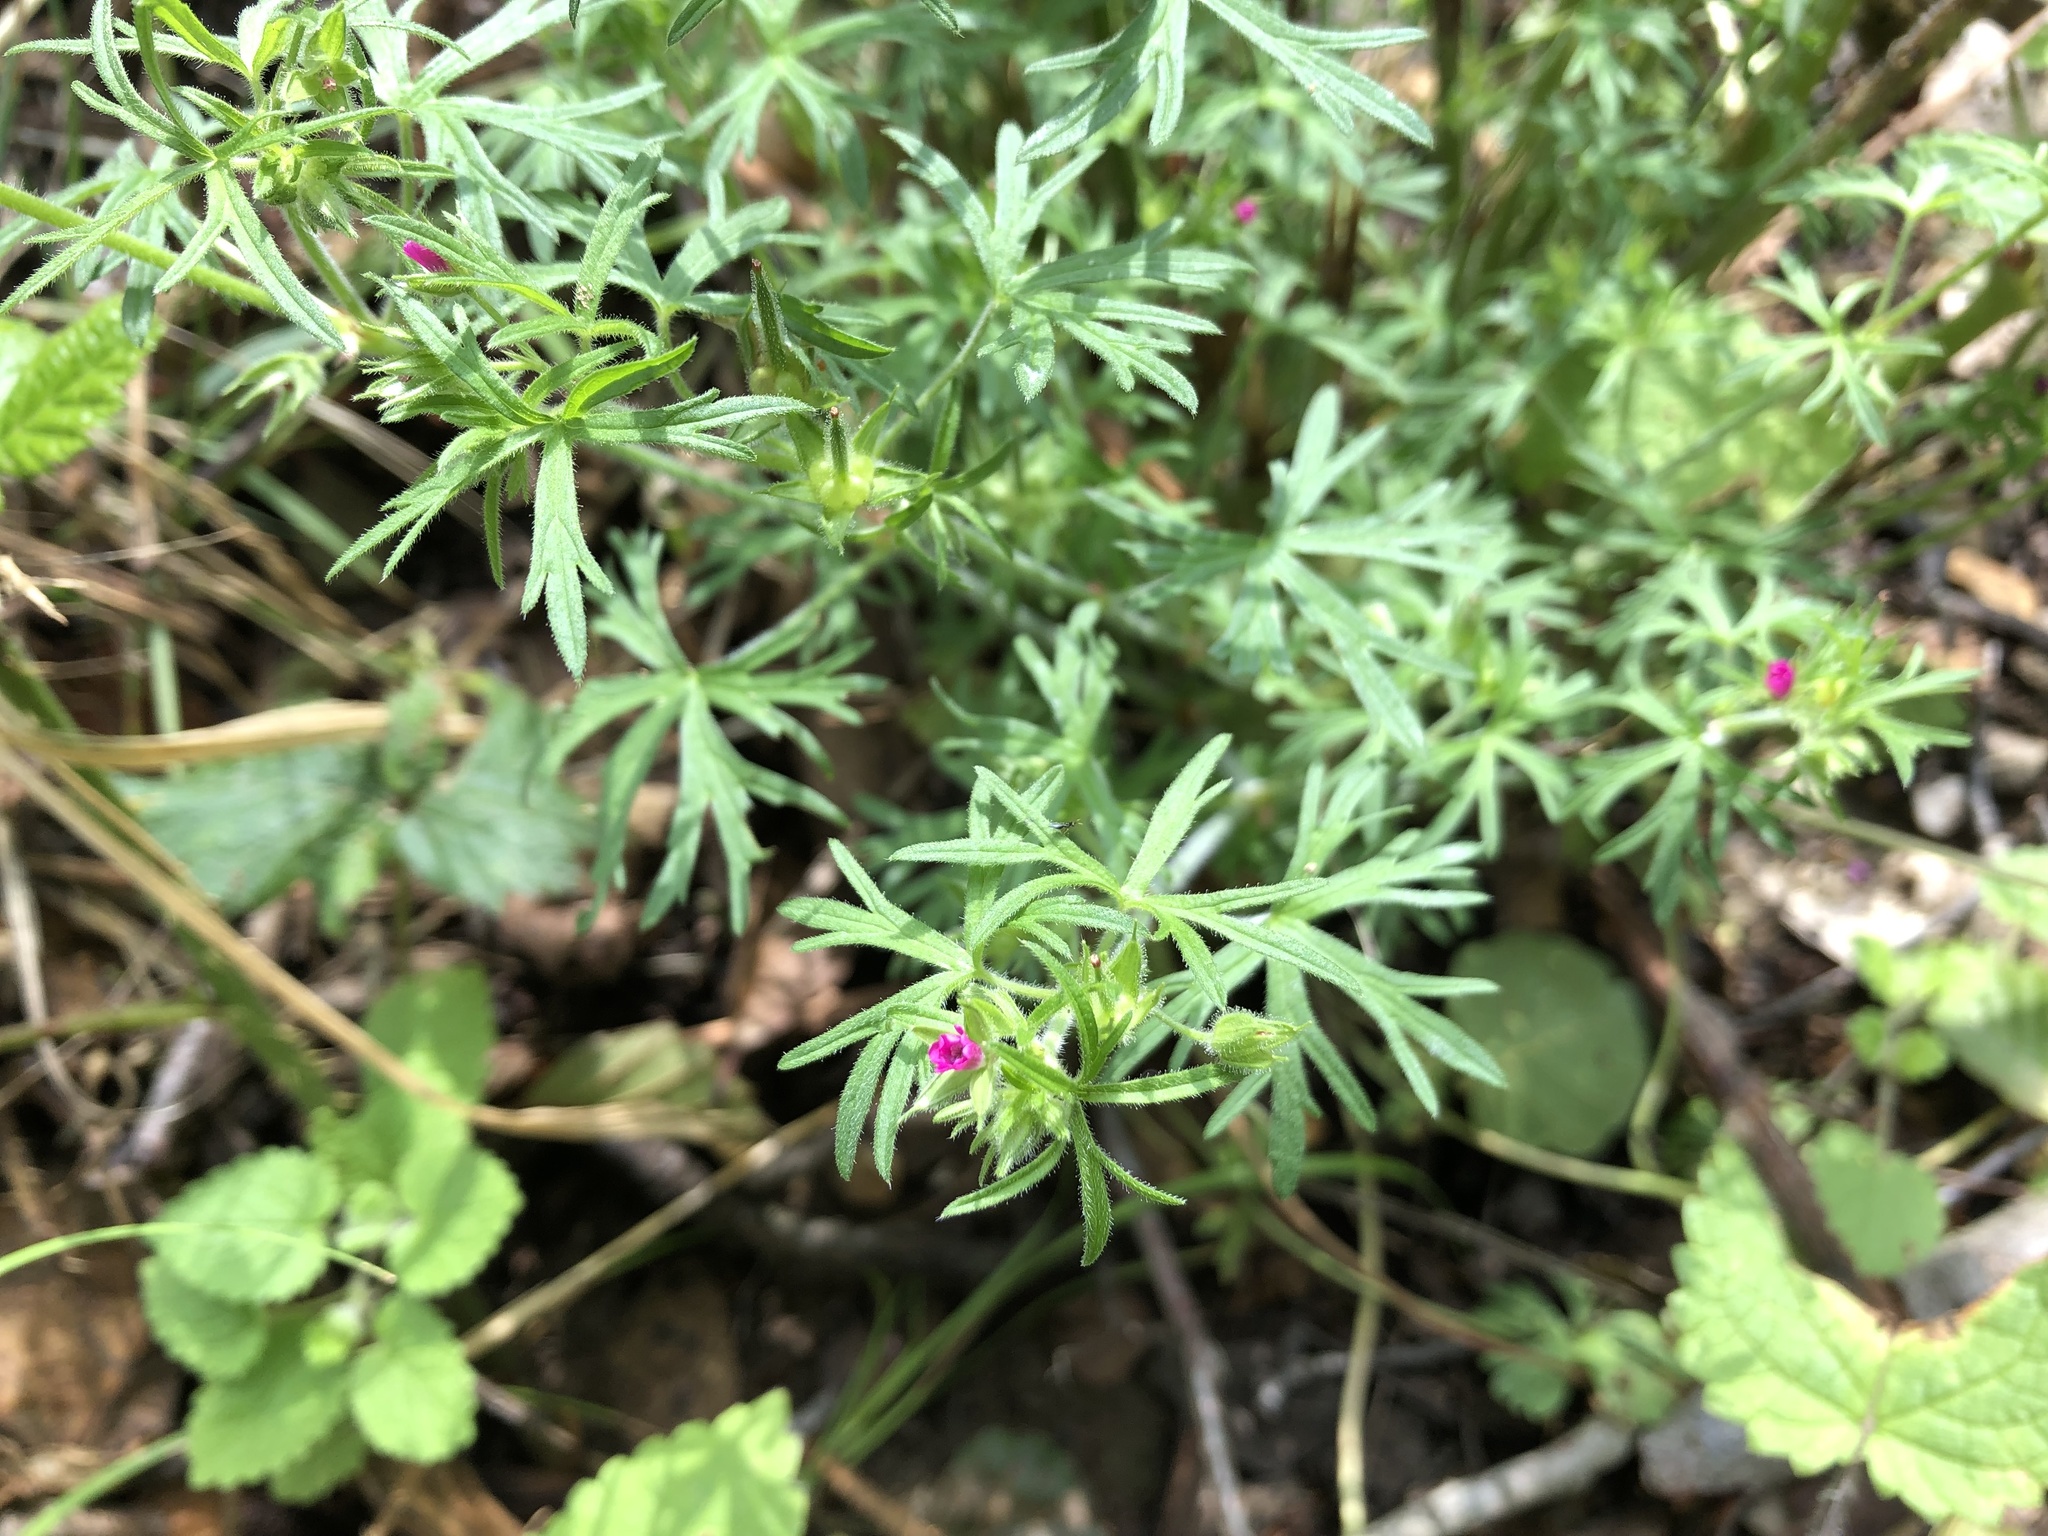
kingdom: Plantae
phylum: Tracheophyta
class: Magnoliopsida
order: Geraniales
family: Geraniaceae
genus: Geranium
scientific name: Geranium dissectum
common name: Cut-leaved crane's-bill
